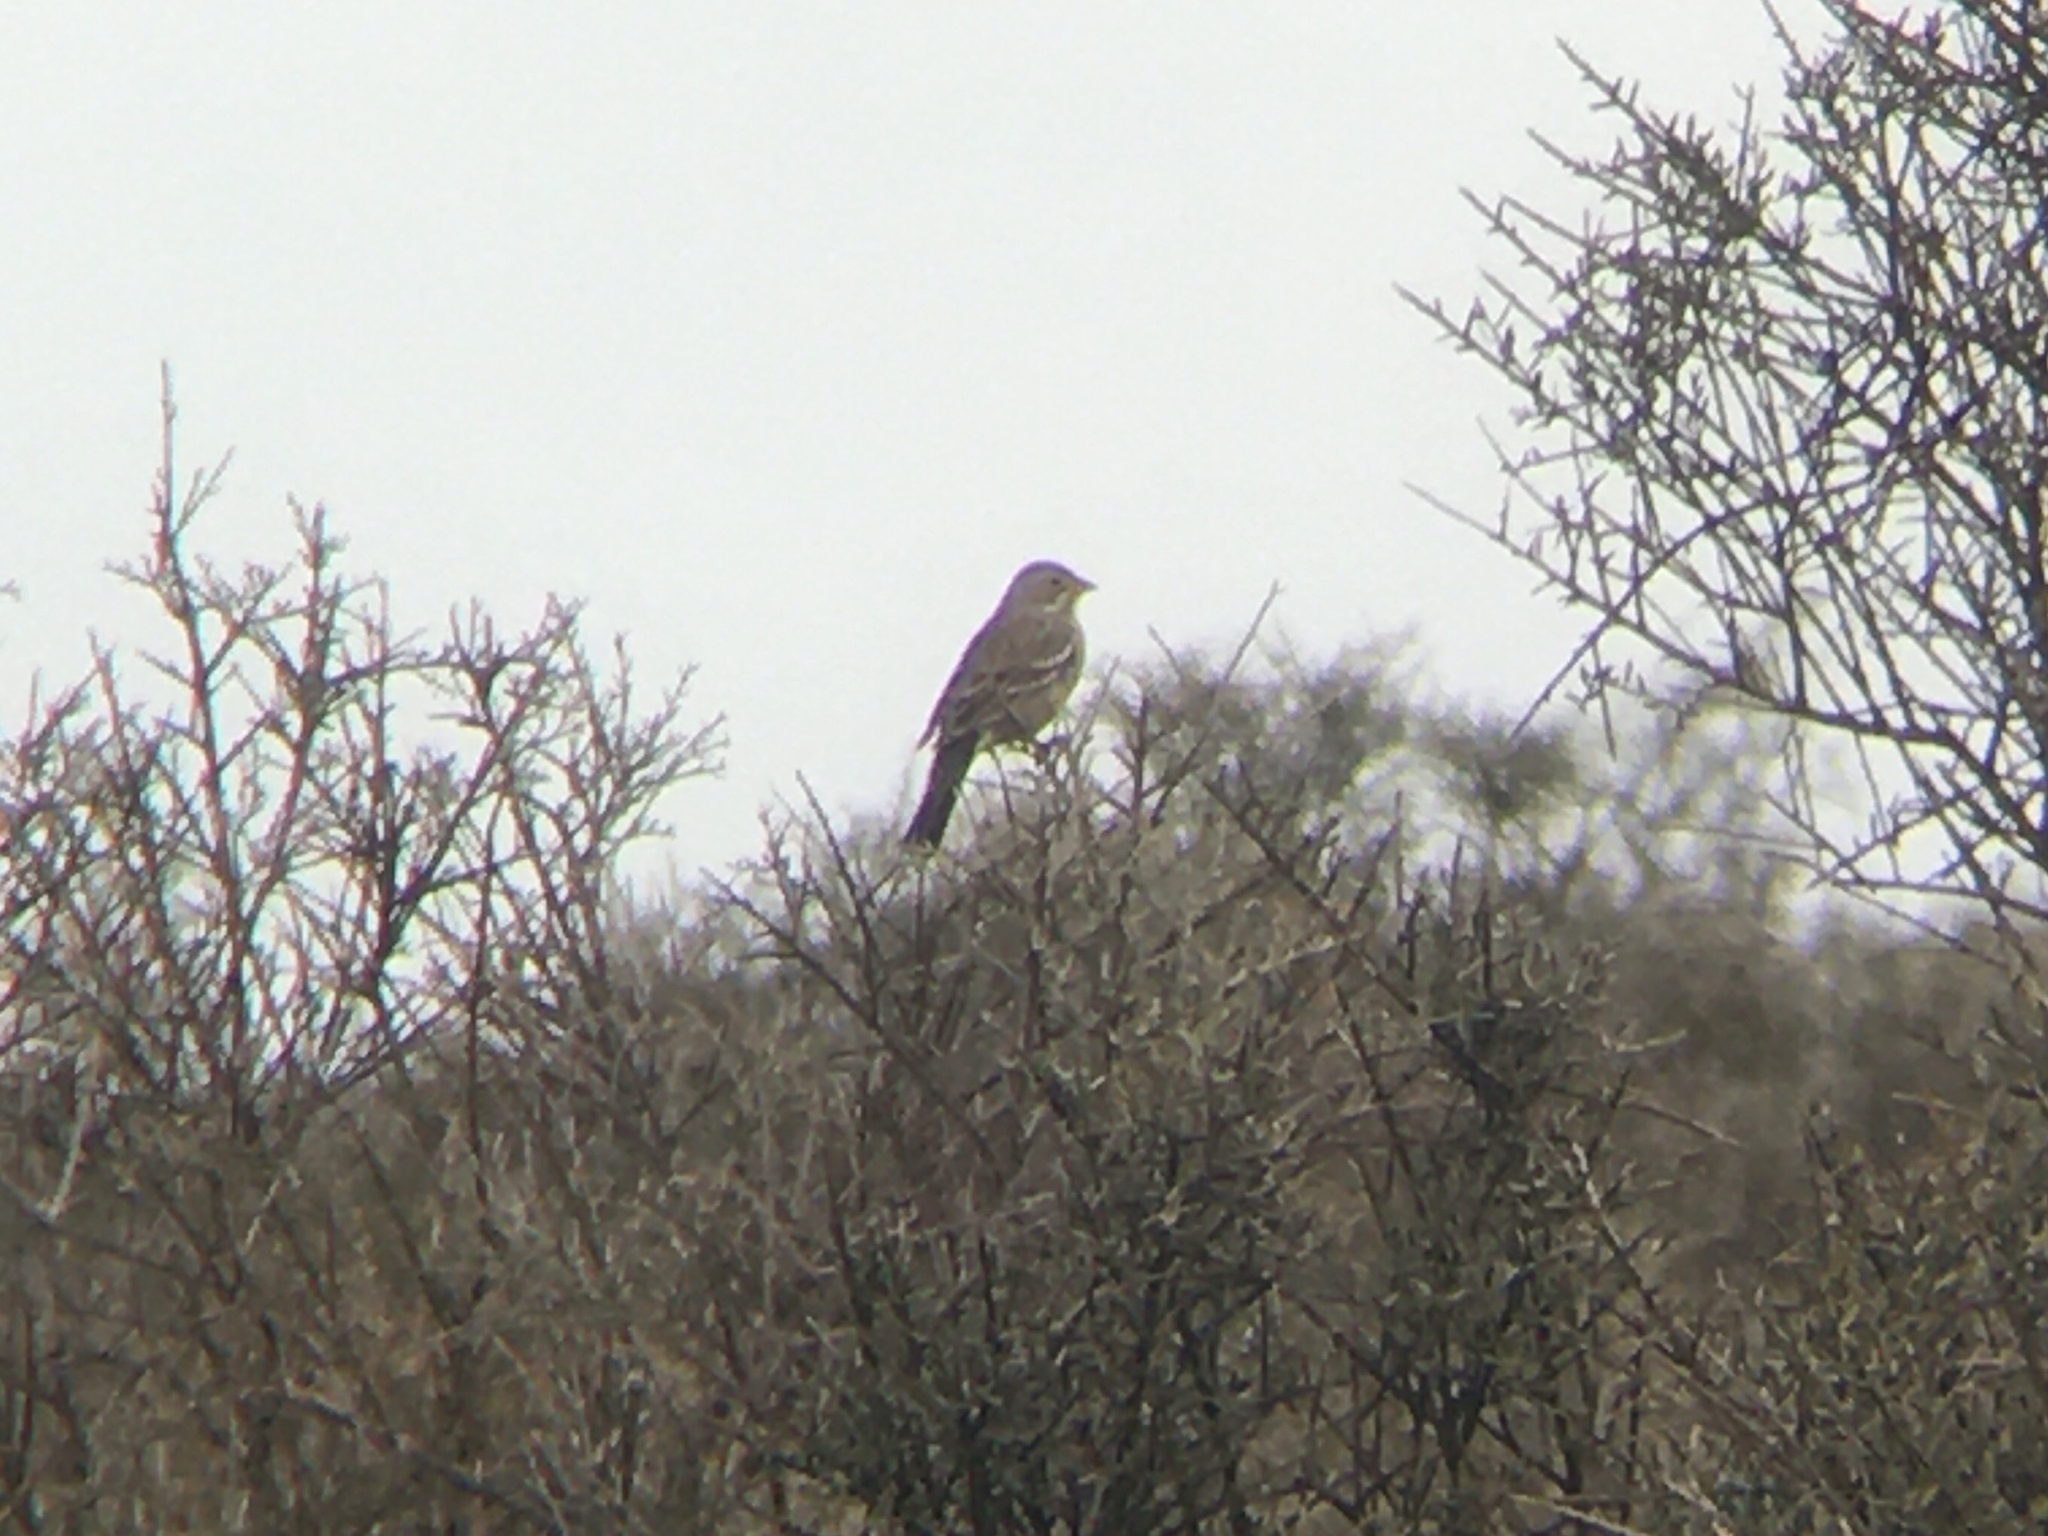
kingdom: Animalia
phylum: Chordata
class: Aves
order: Passeriformes
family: Thraupidae
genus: Rhopospina
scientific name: Rhopospina fruticeti
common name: Mourning sierra finch
